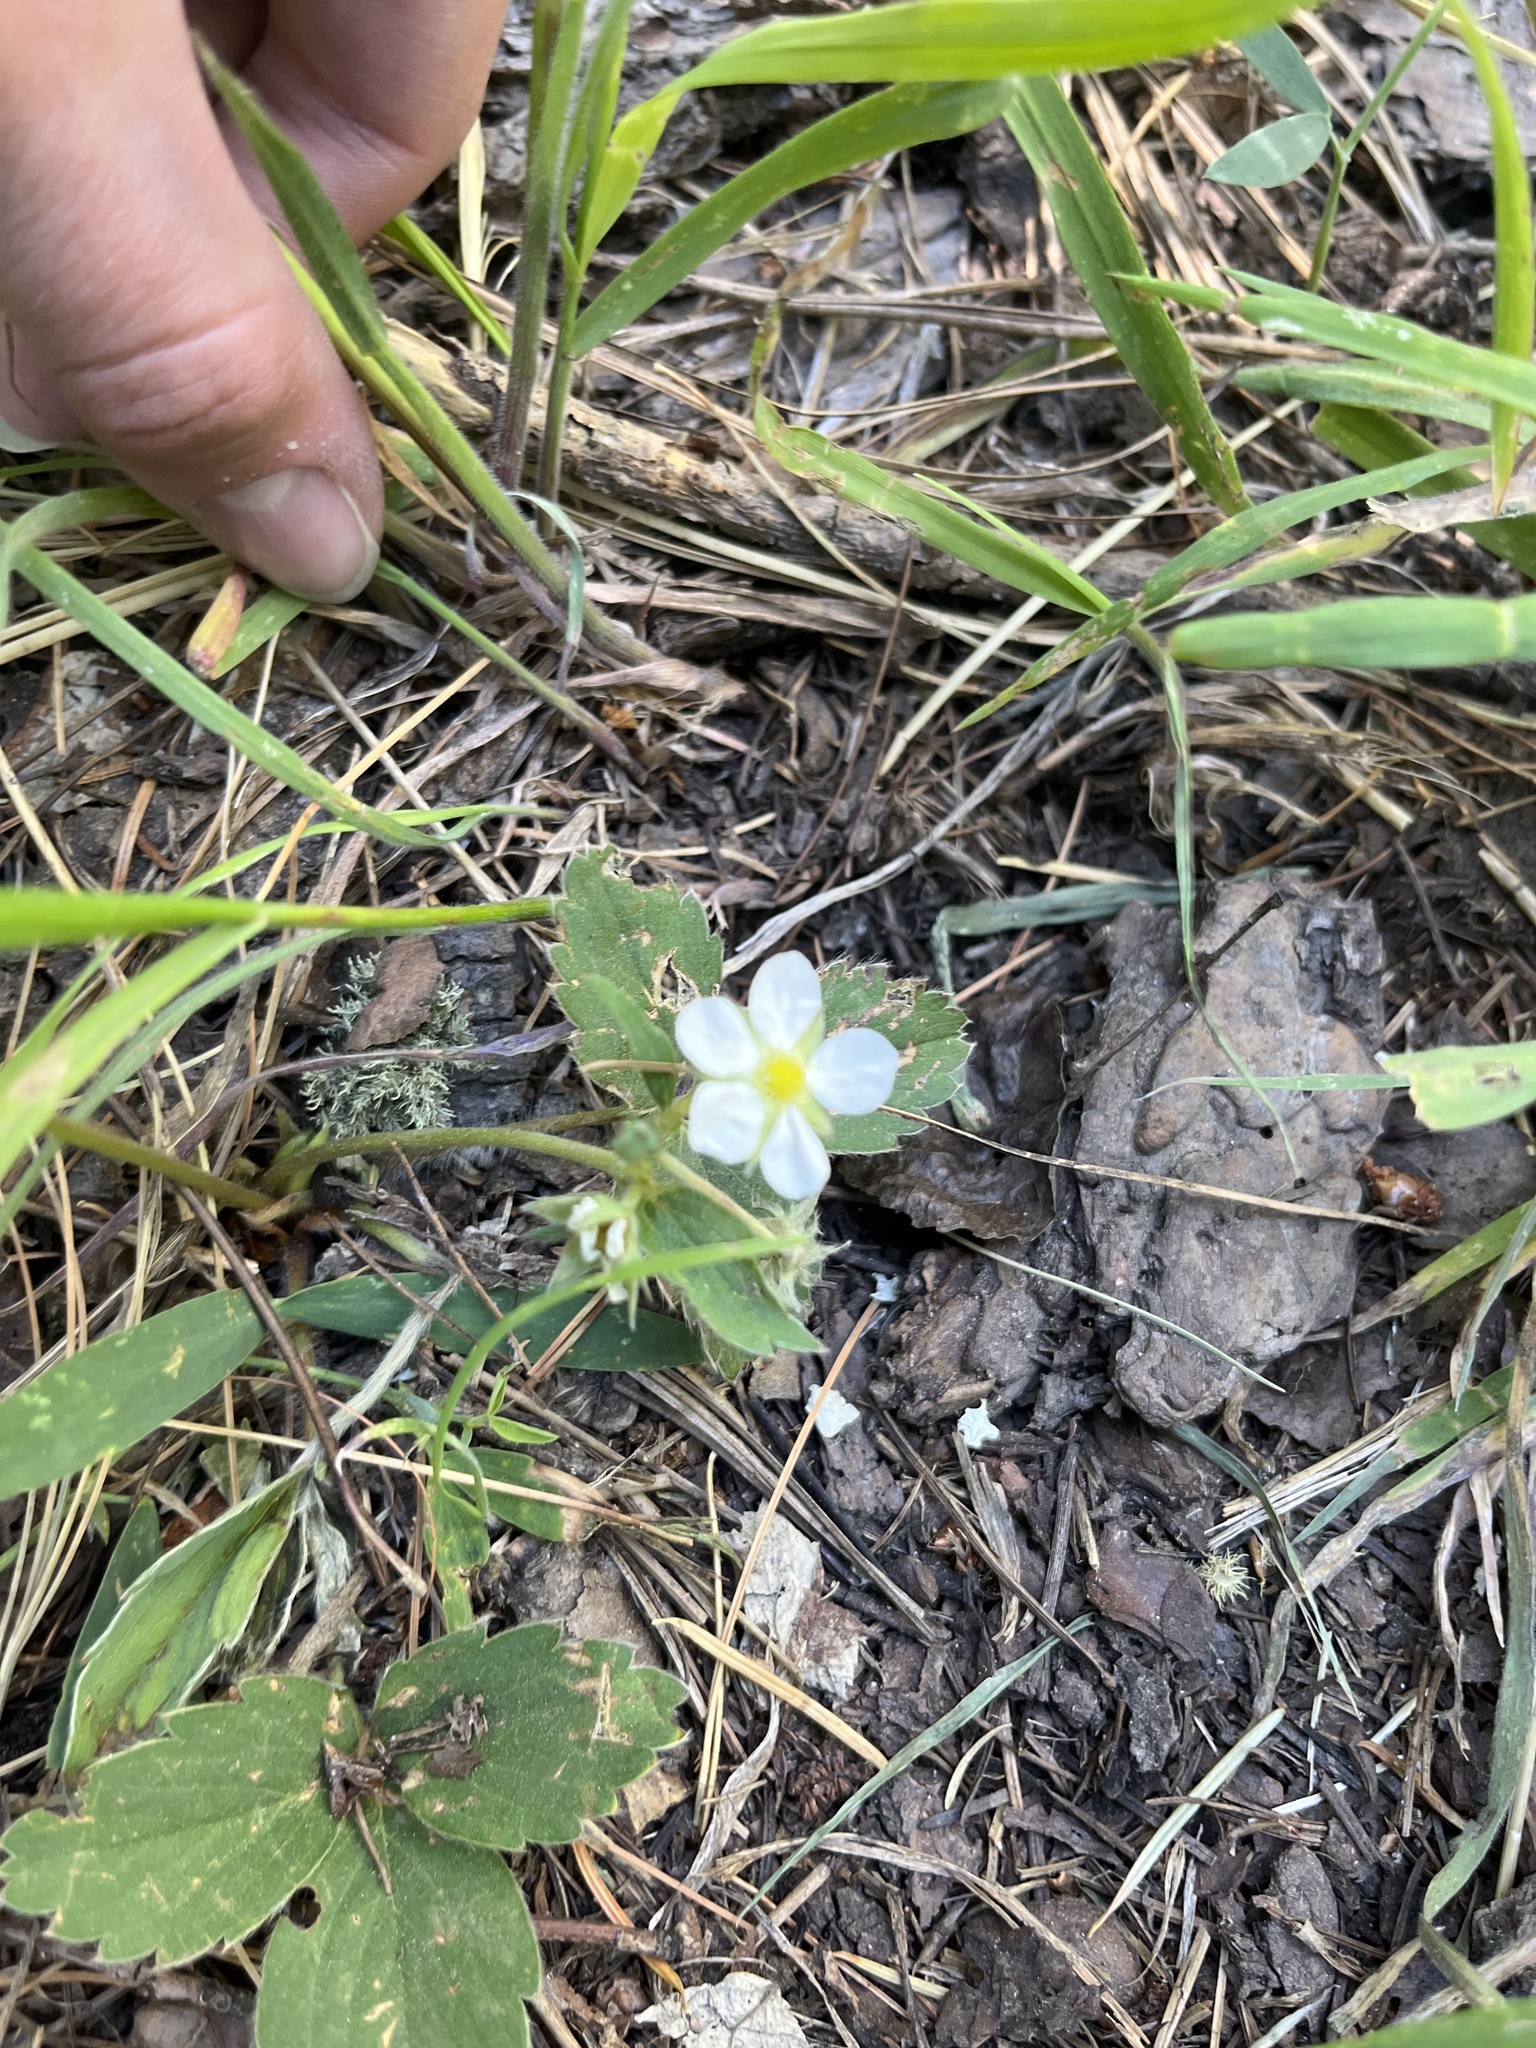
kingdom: Plantae
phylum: Tracheophyta
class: Magnoliopsida
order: Rosales
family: Rosaceae
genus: Fragaria
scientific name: Fragaria virginiana
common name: Thickleaved wild strawberry
